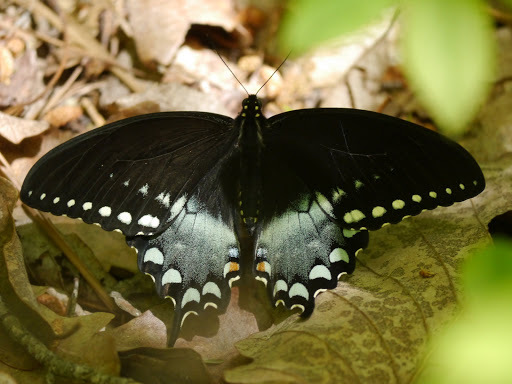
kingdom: Animalia
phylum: Arthropoda
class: Insecta
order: Lepidoptera
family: Papilionidae
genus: Papilio
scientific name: Papilio troilus
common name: Spicebush swallowtail
